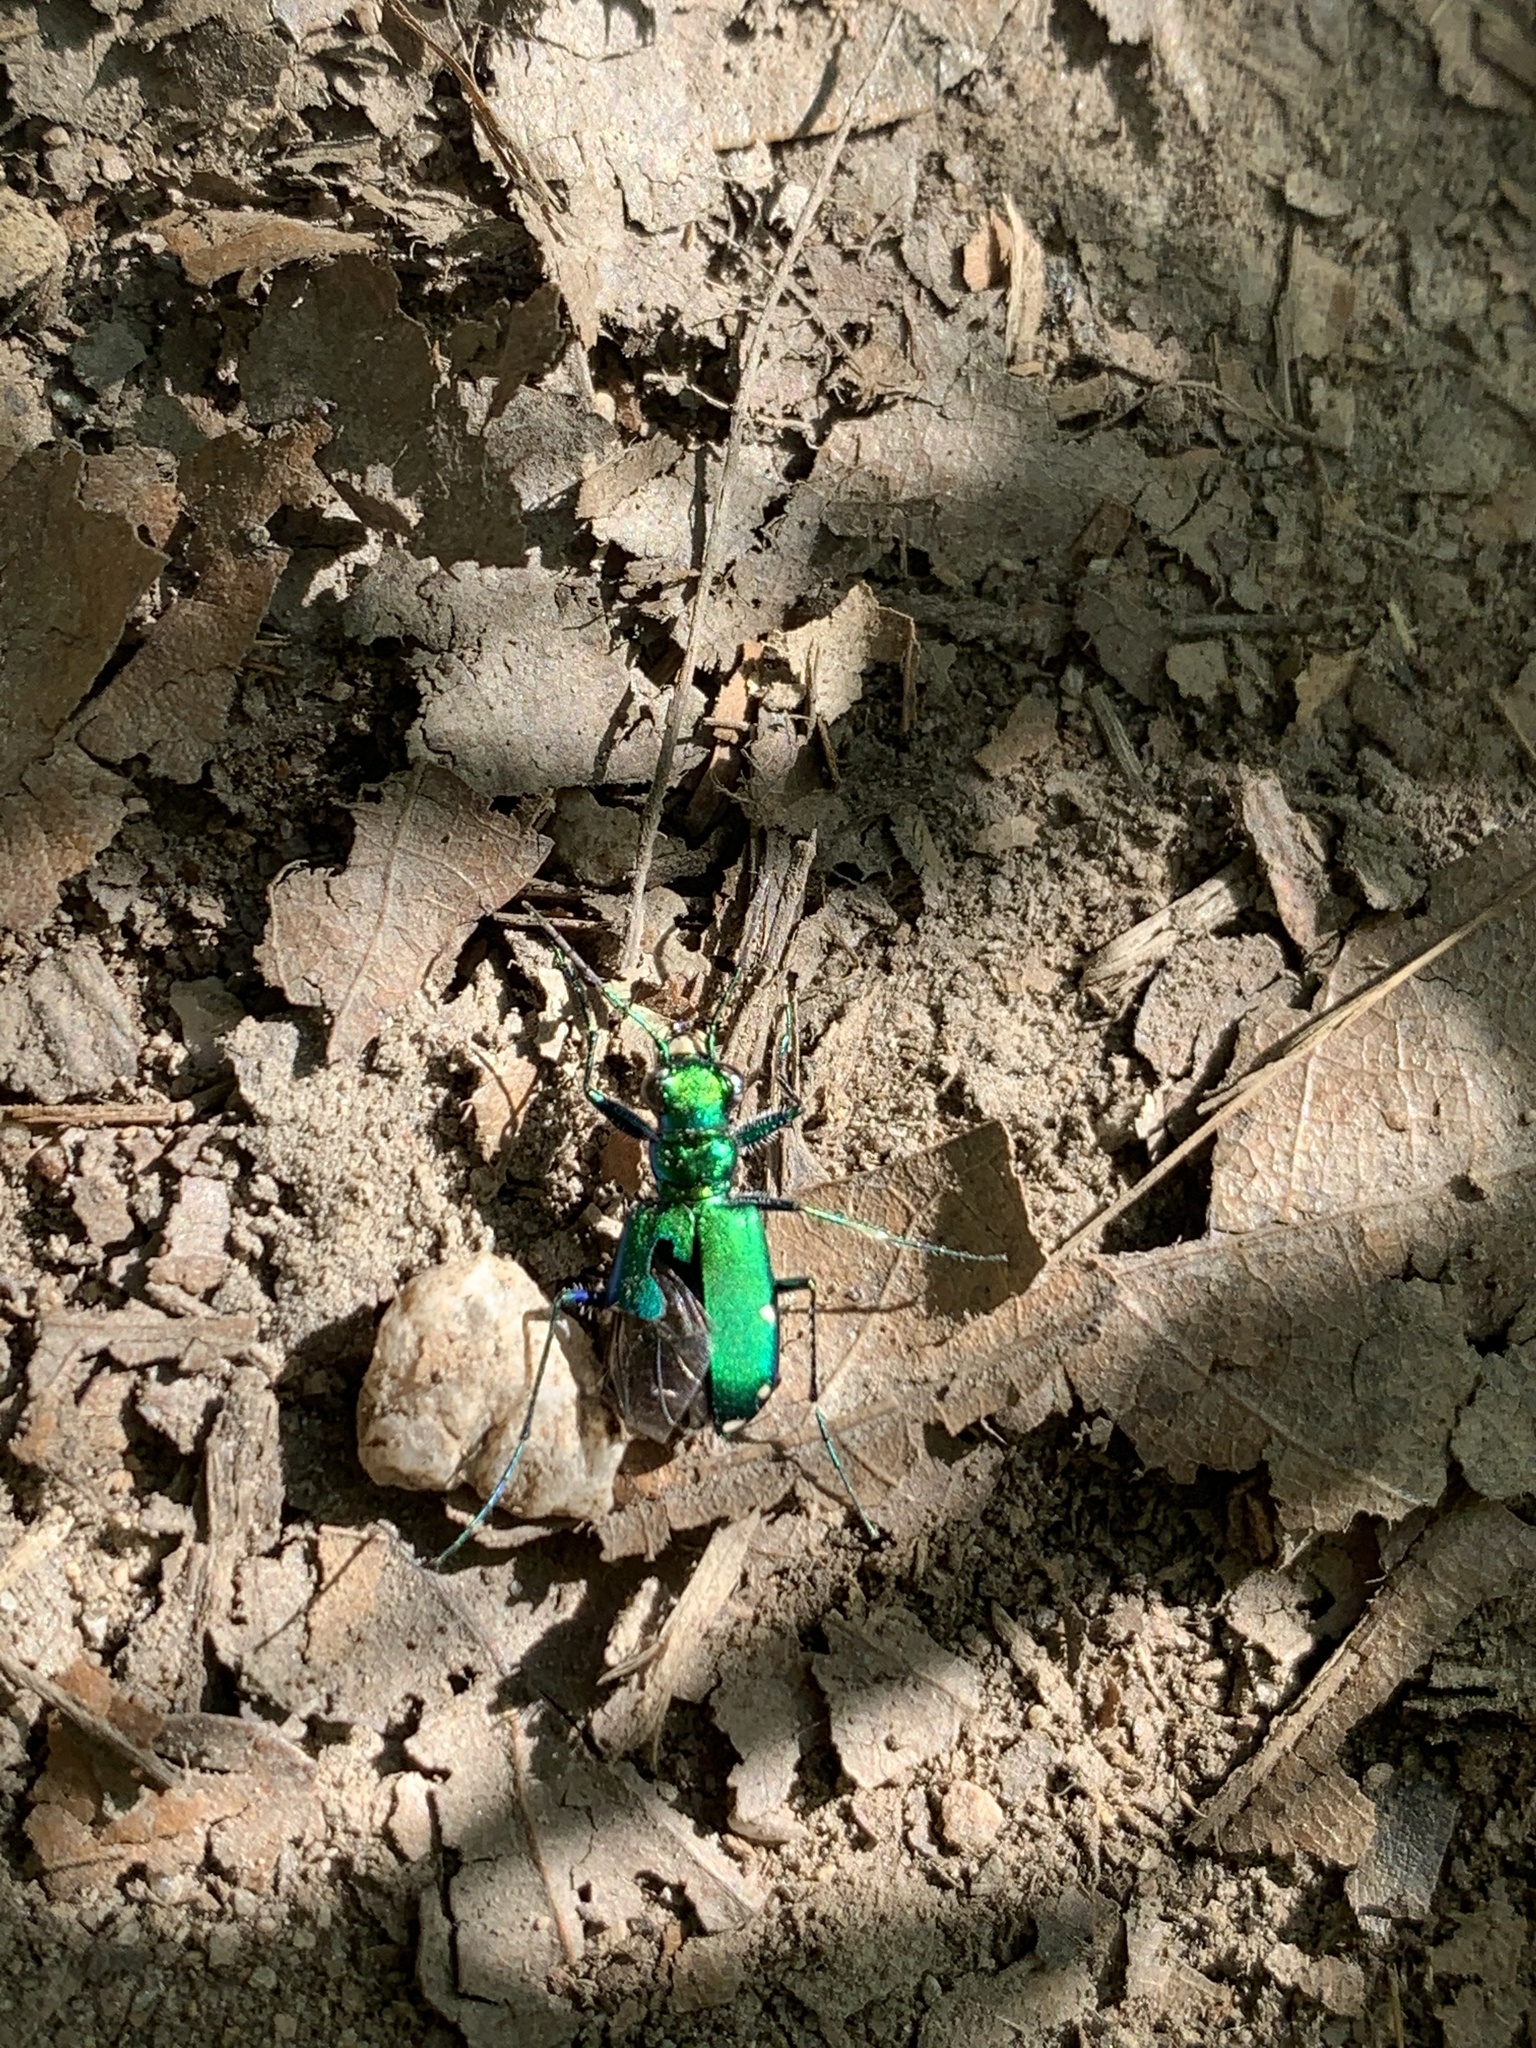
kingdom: Animalia
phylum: Arthropoda
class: Insecta
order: Coleoptera
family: Carabidae
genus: Cicindela
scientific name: Cicindela sexguttata
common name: Six-spotted tiger beetle
